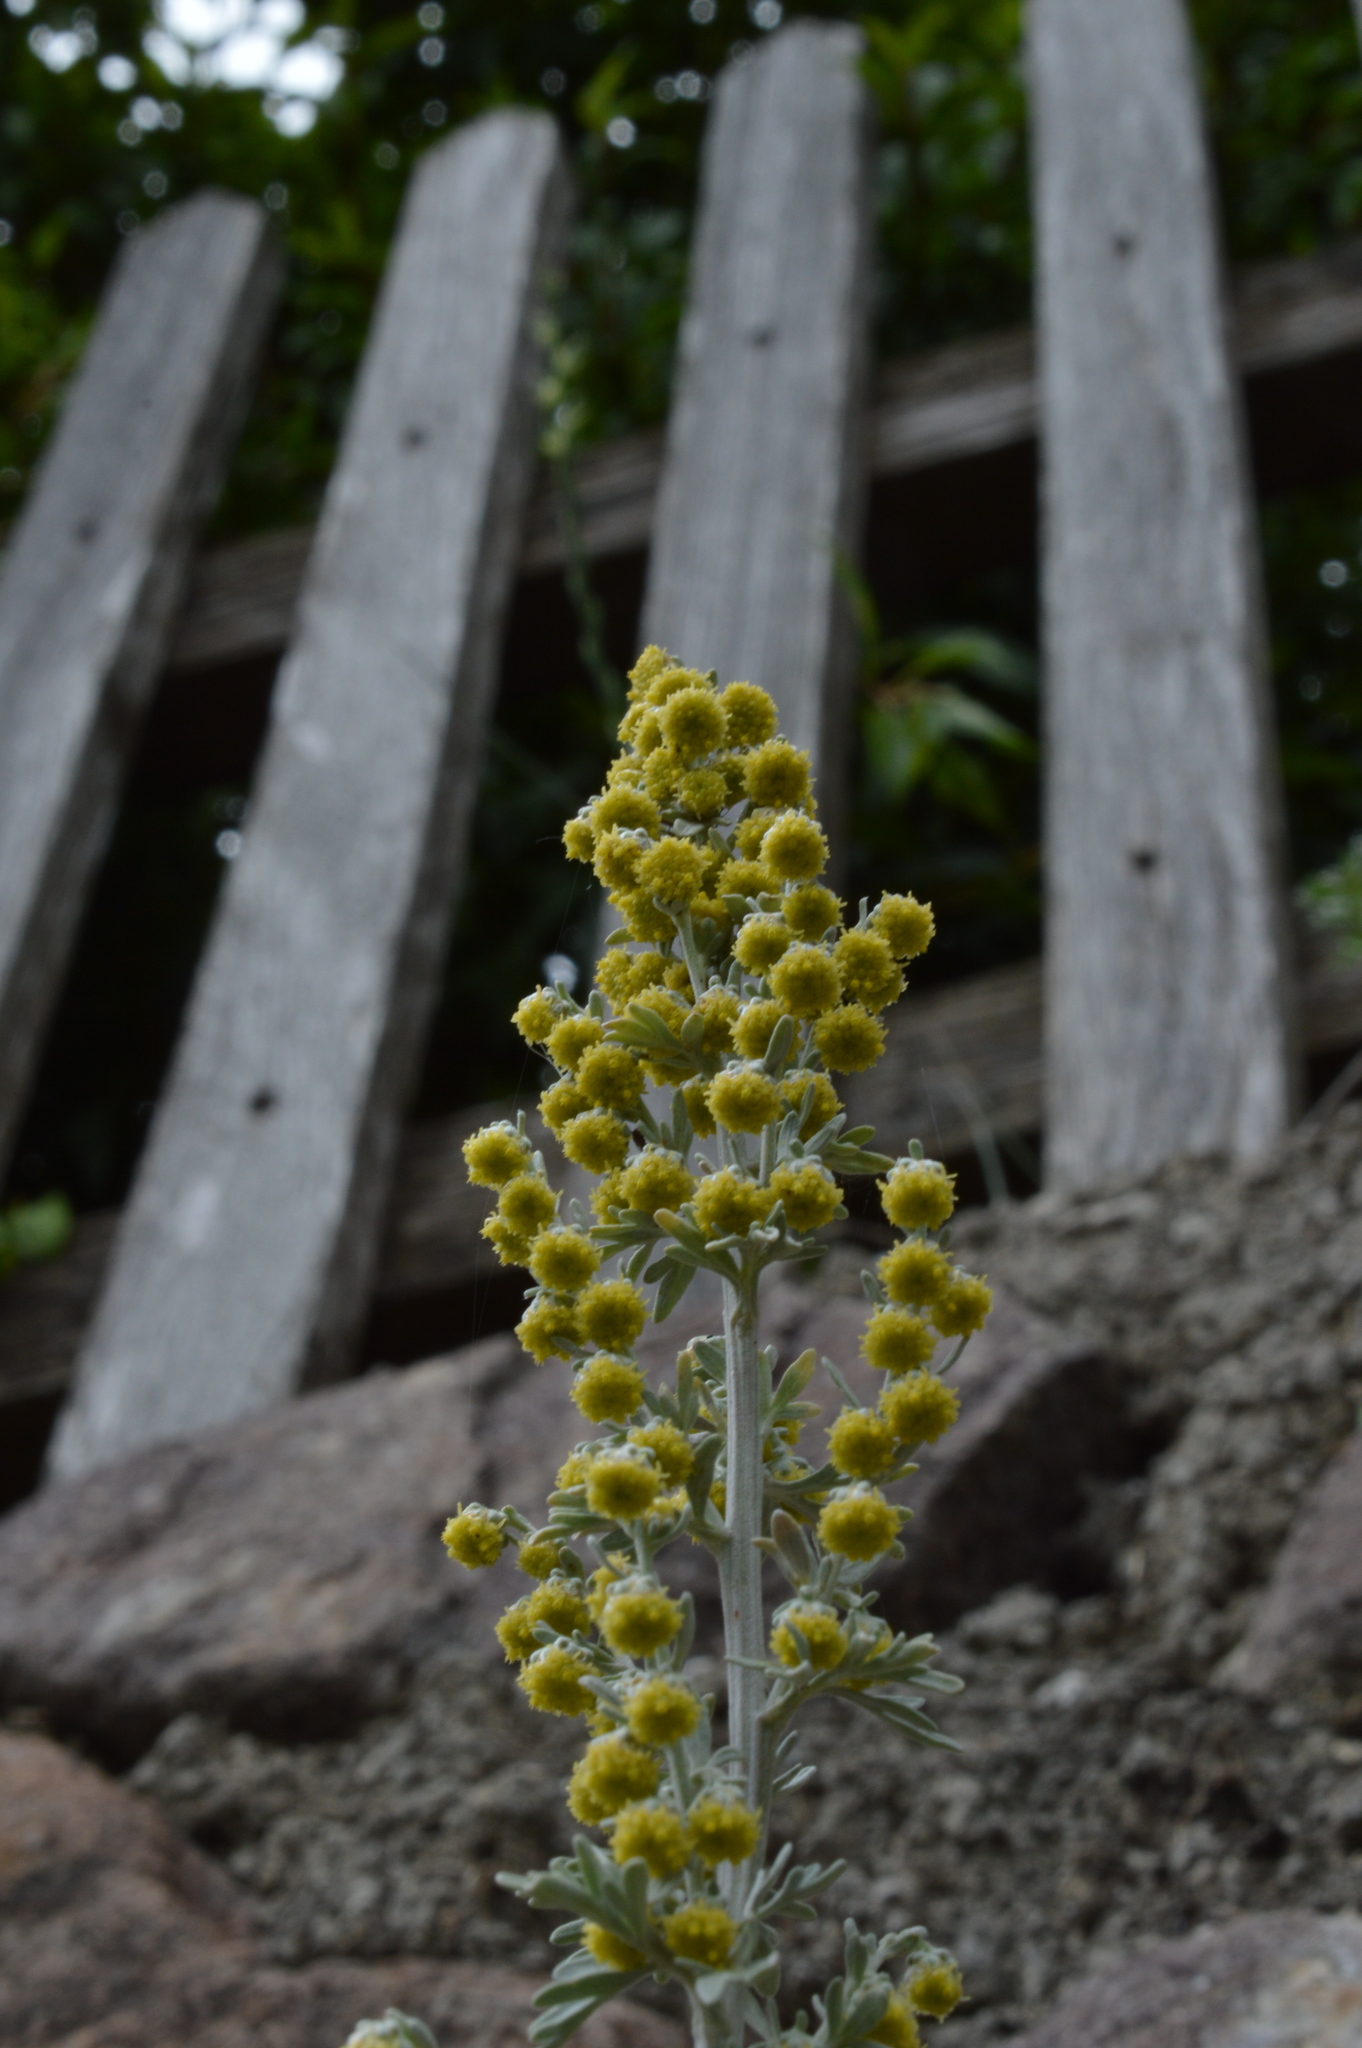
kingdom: Plantae
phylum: Tracheophyta
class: Magnoliopsida
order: Asterales
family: Asteraceae
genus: Artemisia
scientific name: Artemisia absinthium
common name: Wormwood
